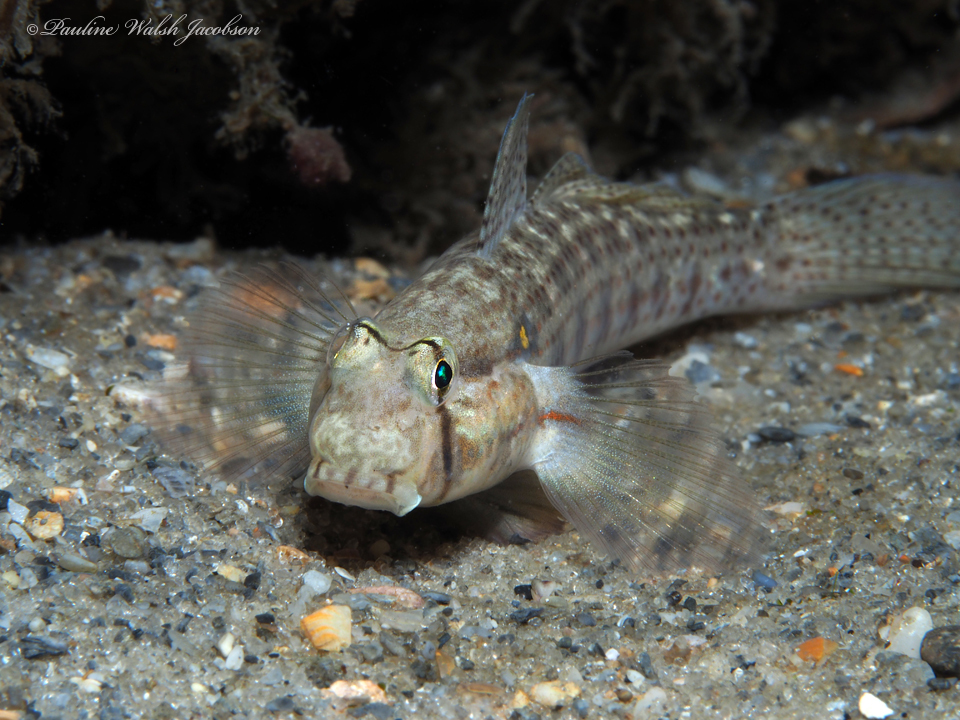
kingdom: Animalia
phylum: Chordata
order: Perciformes
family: Gobiidae
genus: Gnatholepis
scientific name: Gnatholepis thompsoni
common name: Goldspot goby
